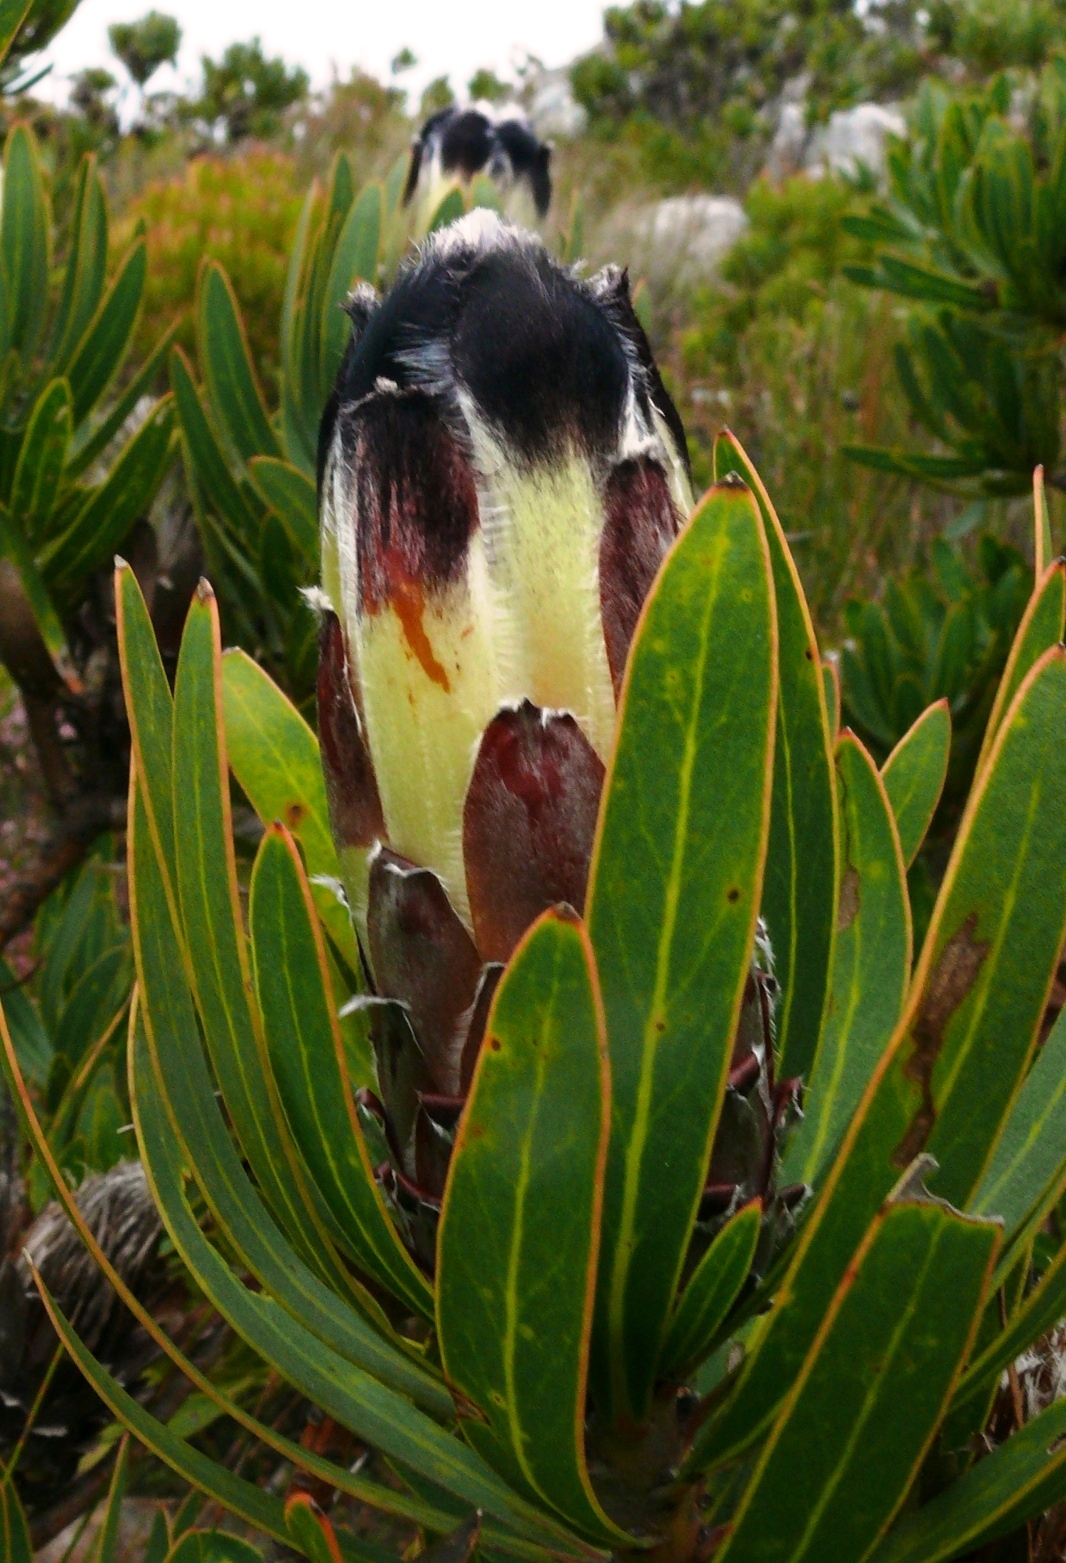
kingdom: Plantae
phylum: Tracheophyta
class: Magnoliopsida
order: Proteales
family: Proteaceae
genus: Protea
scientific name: Protea lepidocarpodendron
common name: Black-bearded protea
